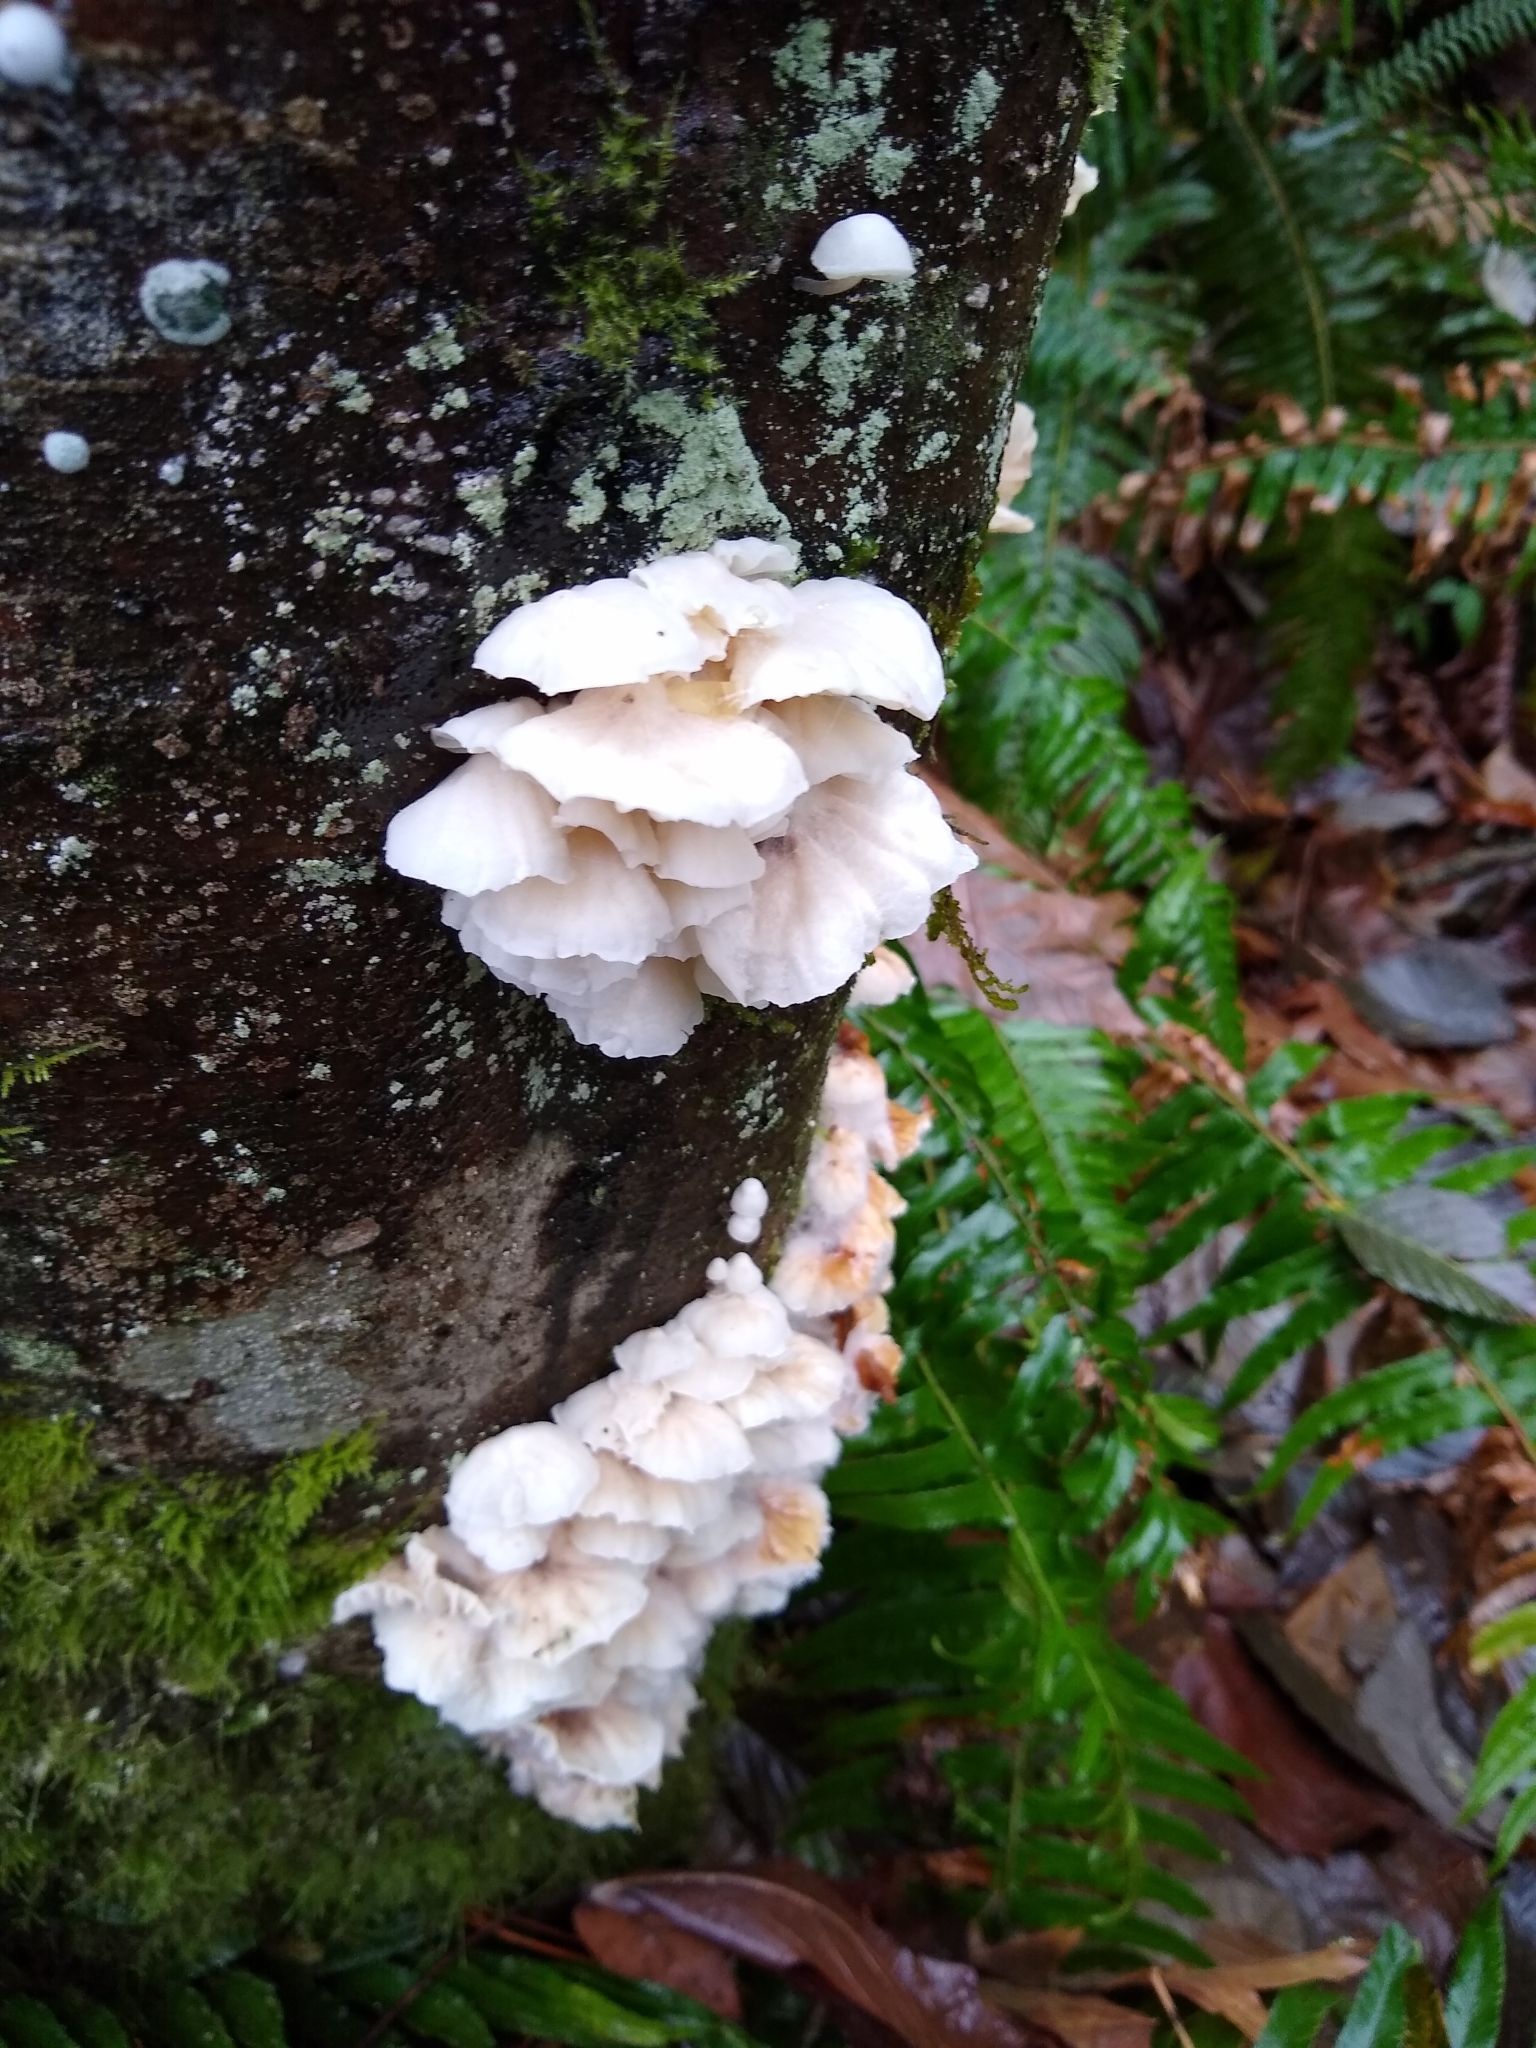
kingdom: Fungi
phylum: Basidiomycota
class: Agaricomycetes
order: Agaricales
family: Omphalotaceae
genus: Marasmiellus
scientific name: Marasmiellus candidus
